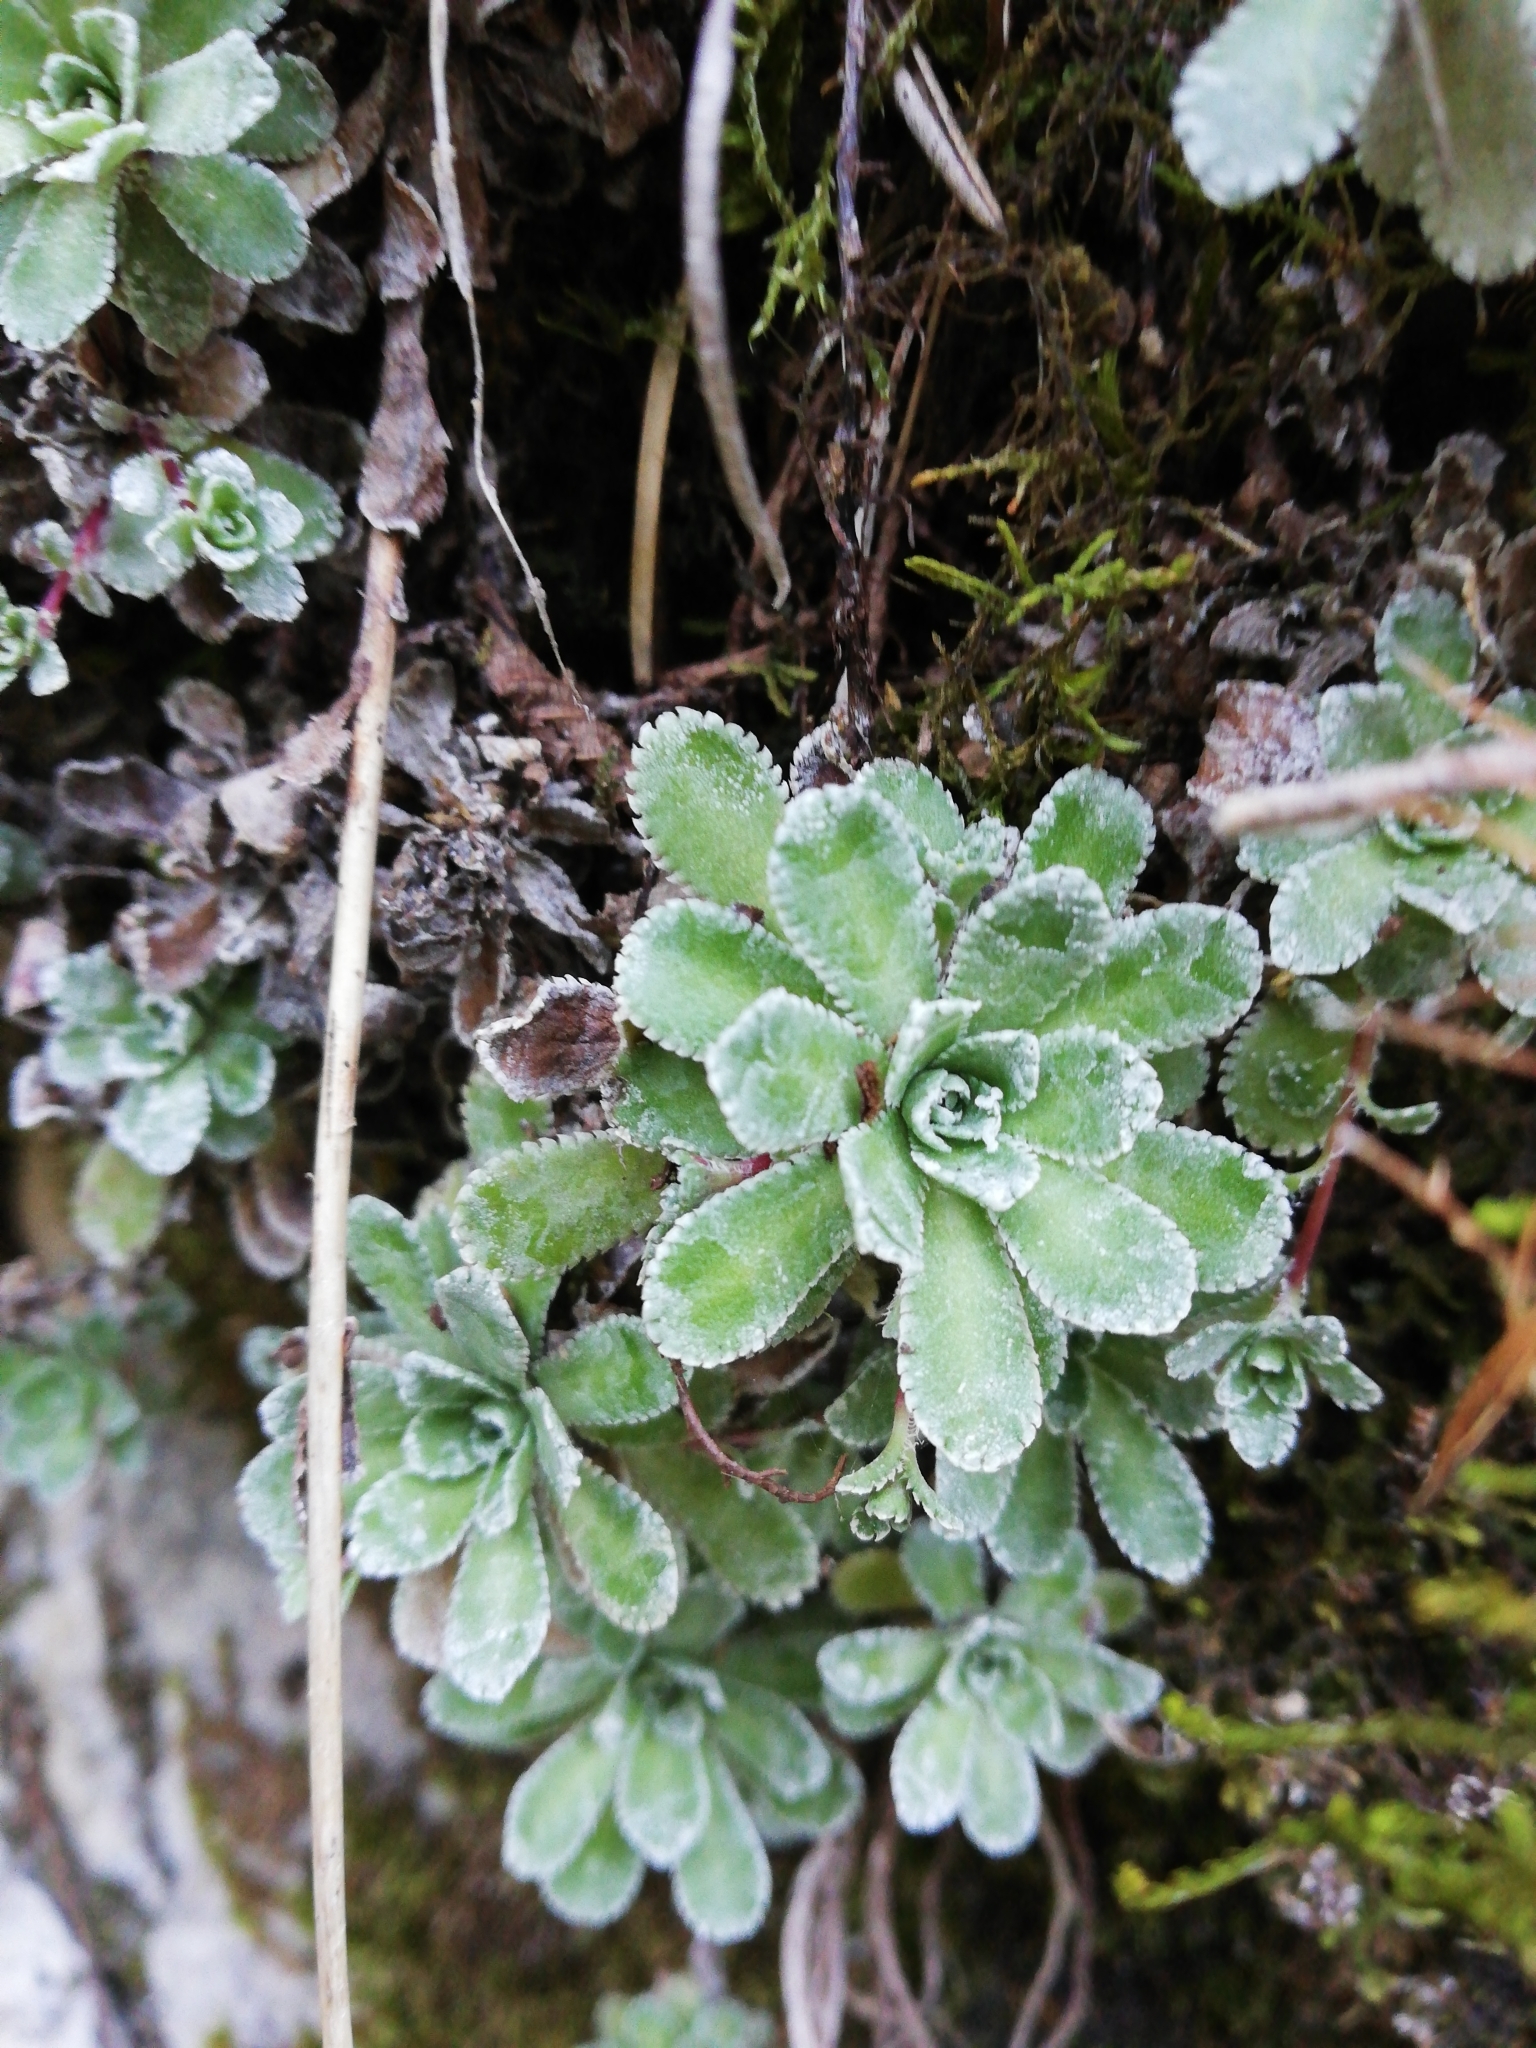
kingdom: Plantae
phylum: Tracheophyta
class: Magnoliopsida
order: Saxifragales
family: Saxifragaceae
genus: Saxifraga
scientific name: Saxifraga paniculata
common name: Livelong saxifrage
